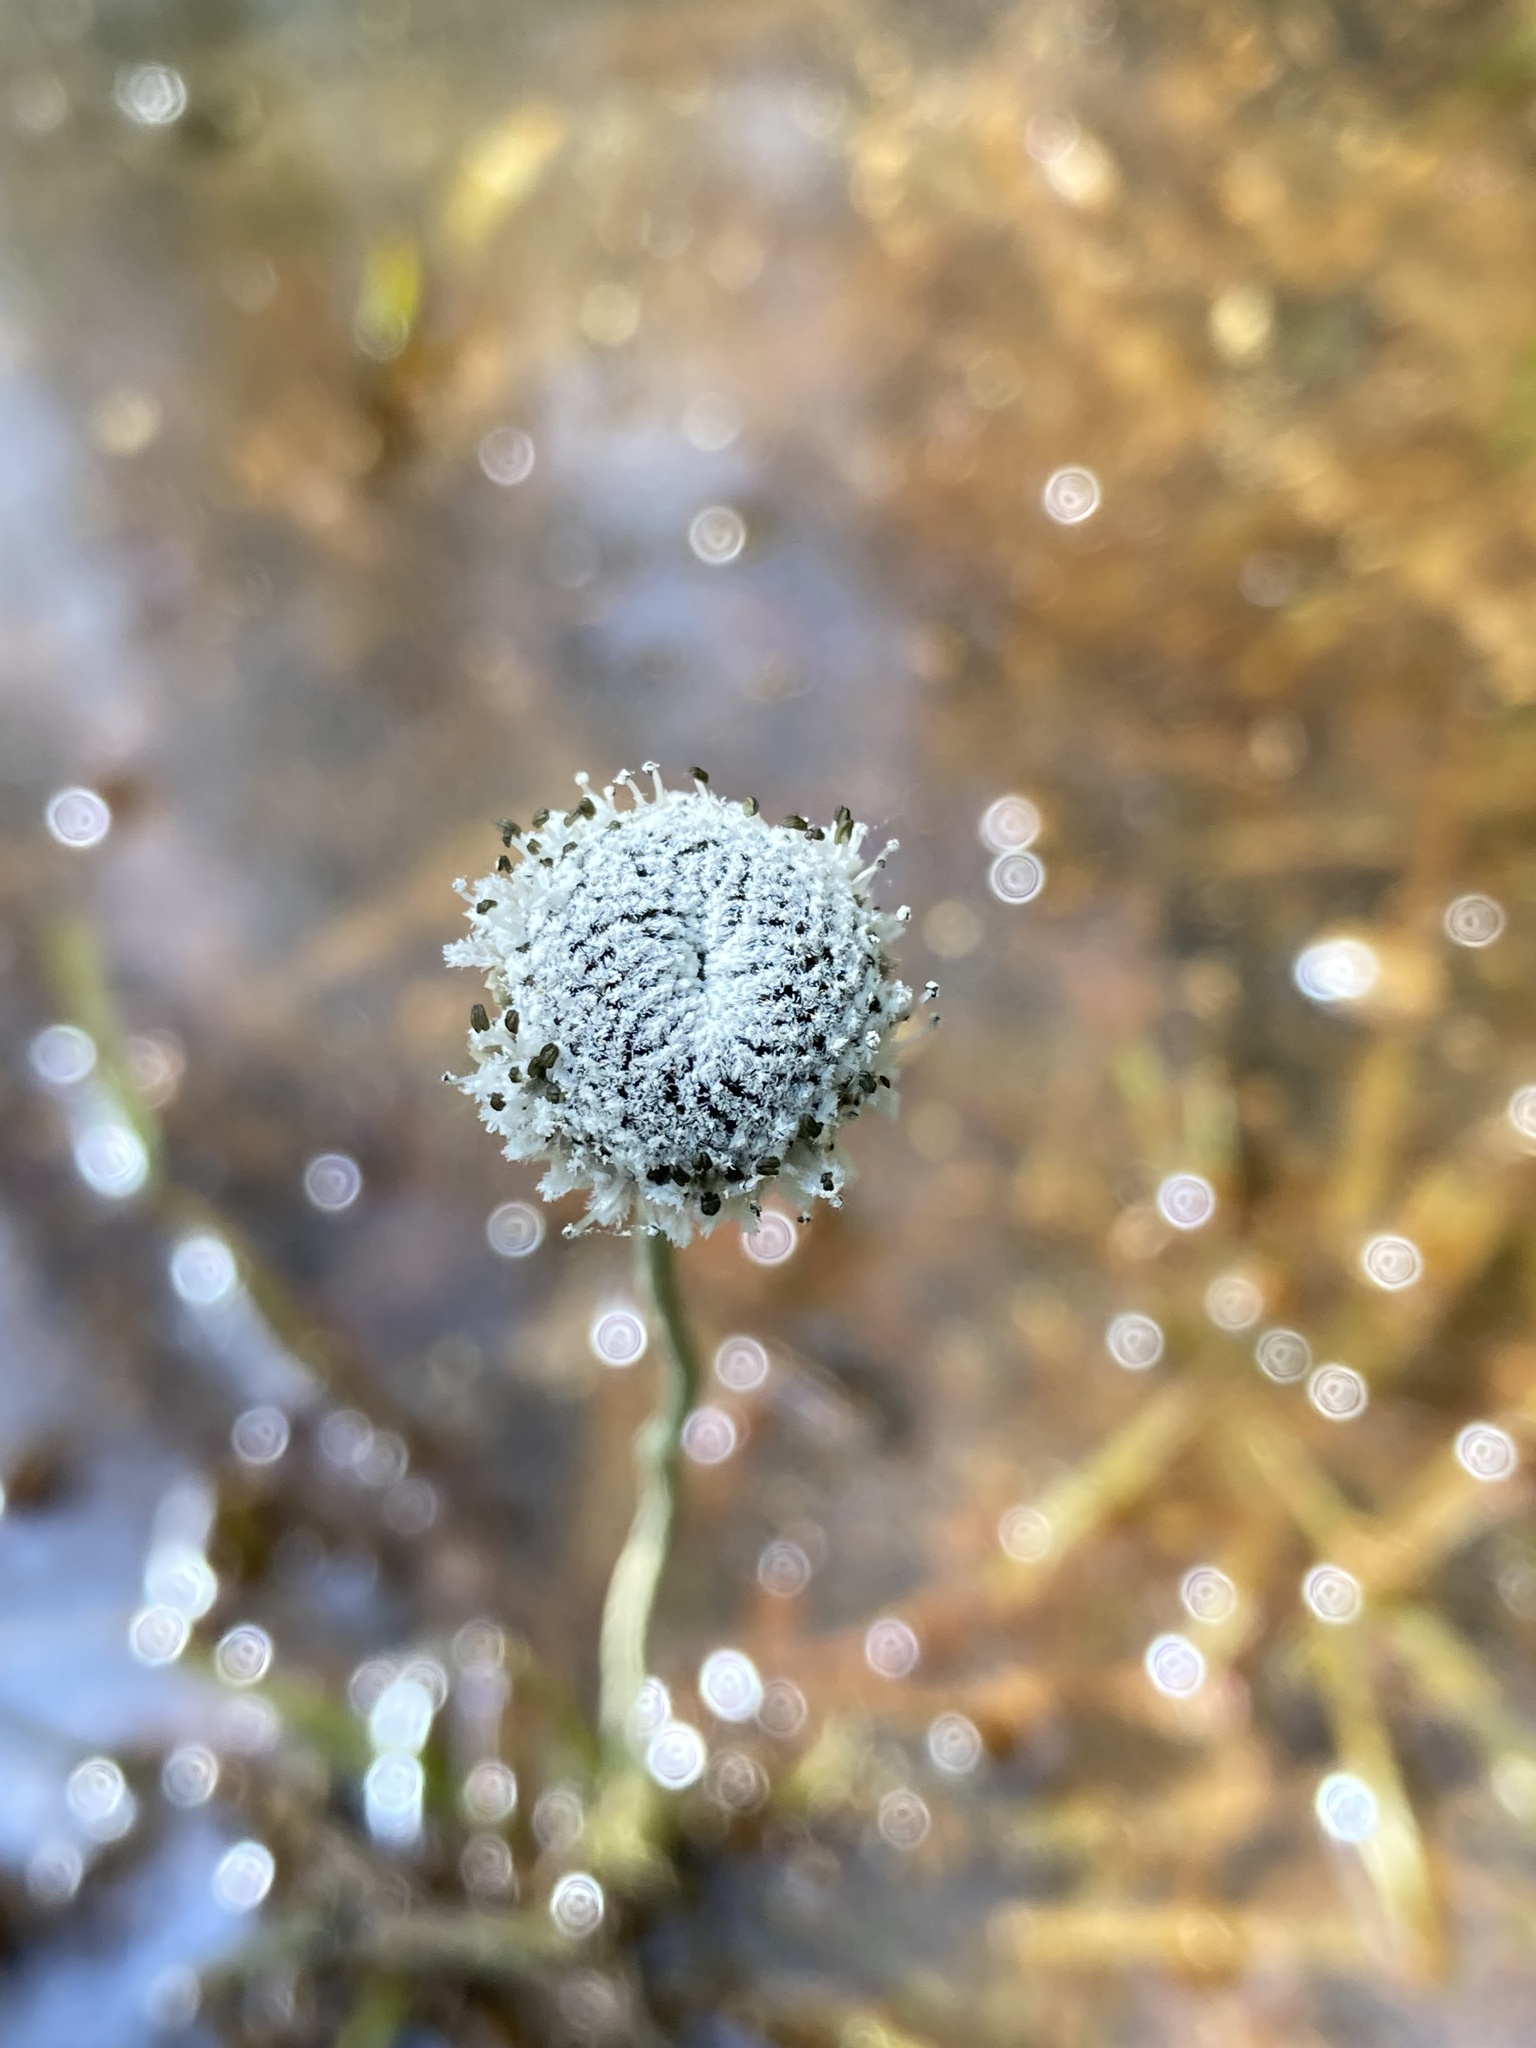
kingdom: Plantae
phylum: Tracheophyta
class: Liliopsida
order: Poales
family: Eriocaulaceae
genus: Eriocaulon
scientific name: Eriocaulon compressum
